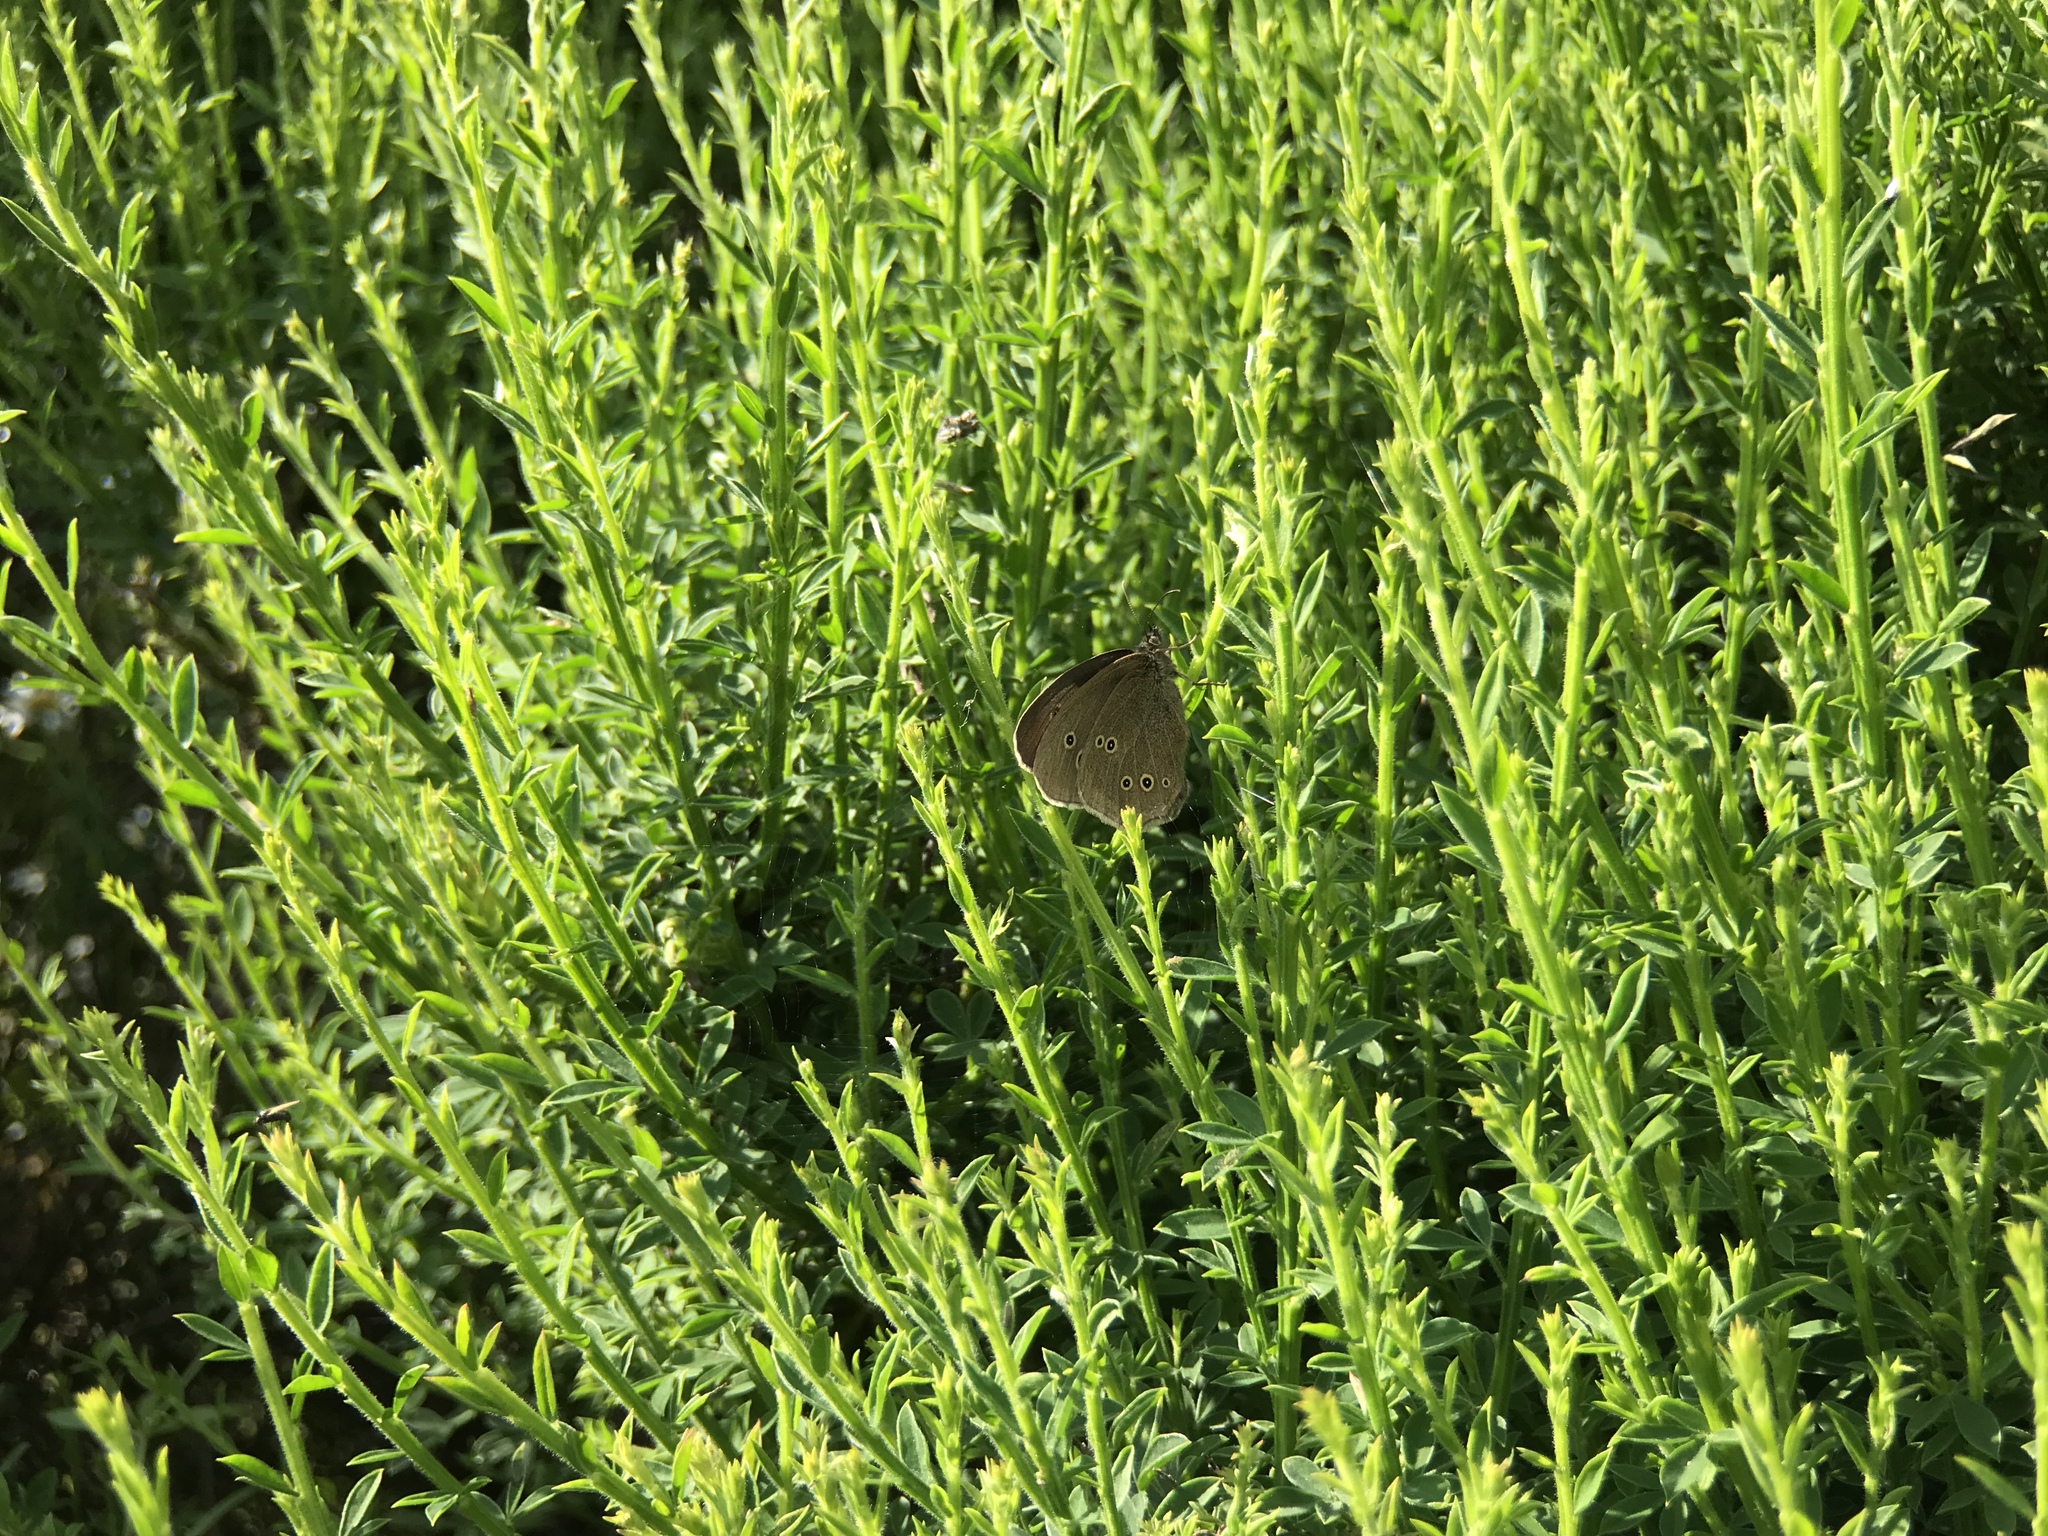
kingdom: Animalia
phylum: Arthropoda
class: Insecta
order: Lepidoptera
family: Nymphalidae
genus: Aphantopus
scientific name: Aphantopus hyperantus
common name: Ringlet
